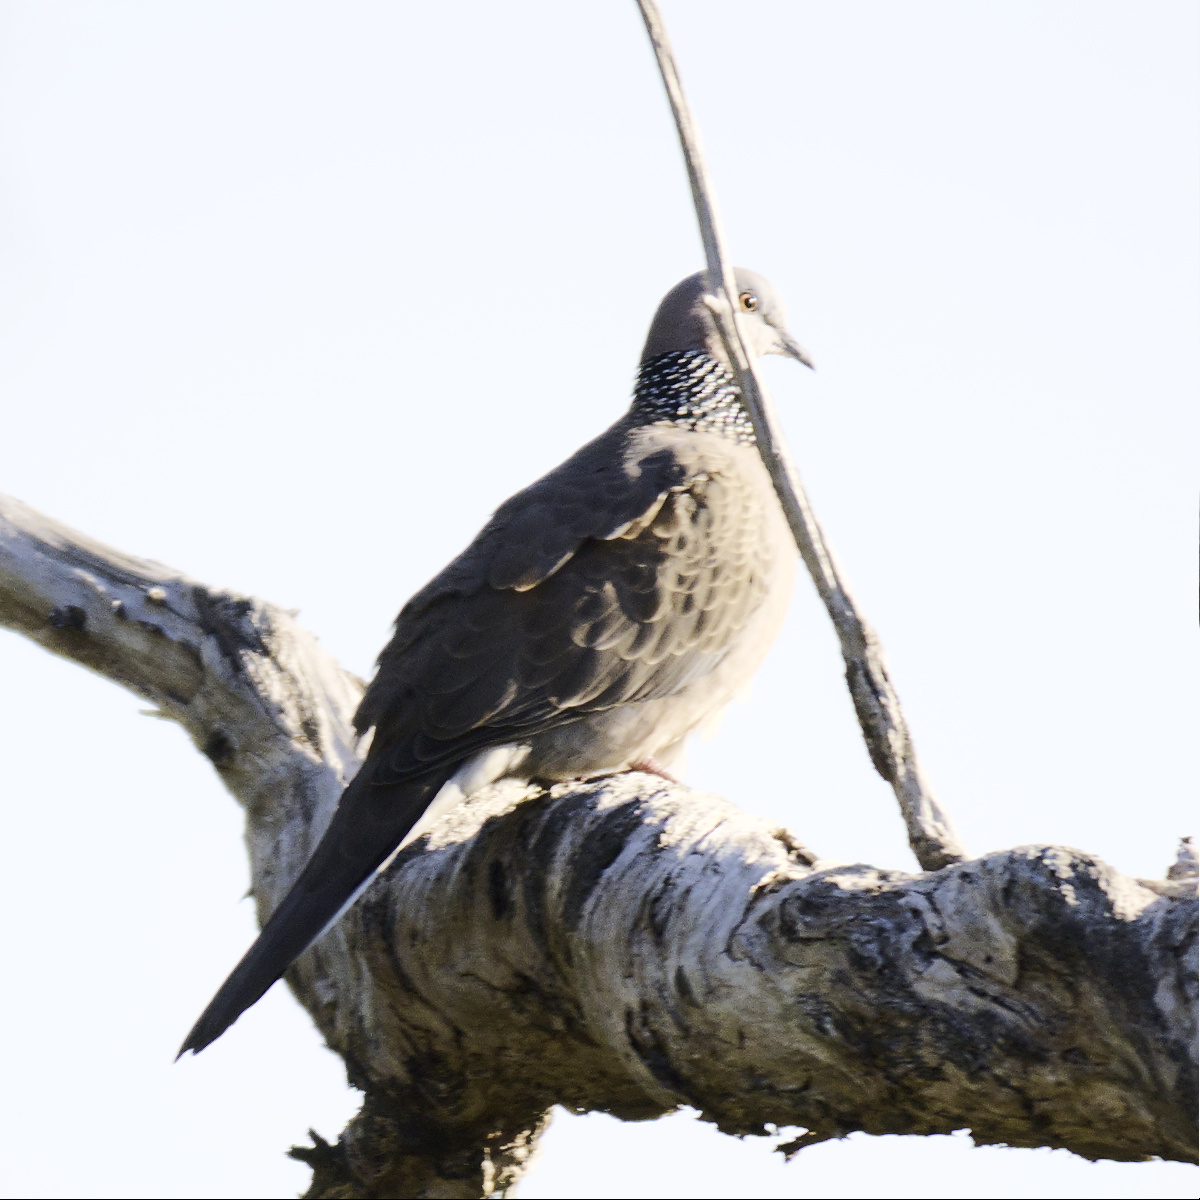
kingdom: Animalia
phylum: Chordata
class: Aves
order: Columbiformes
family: Columbidae
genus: Spilopelia
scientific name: Spilopelia chinensis
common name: Spotted dove
